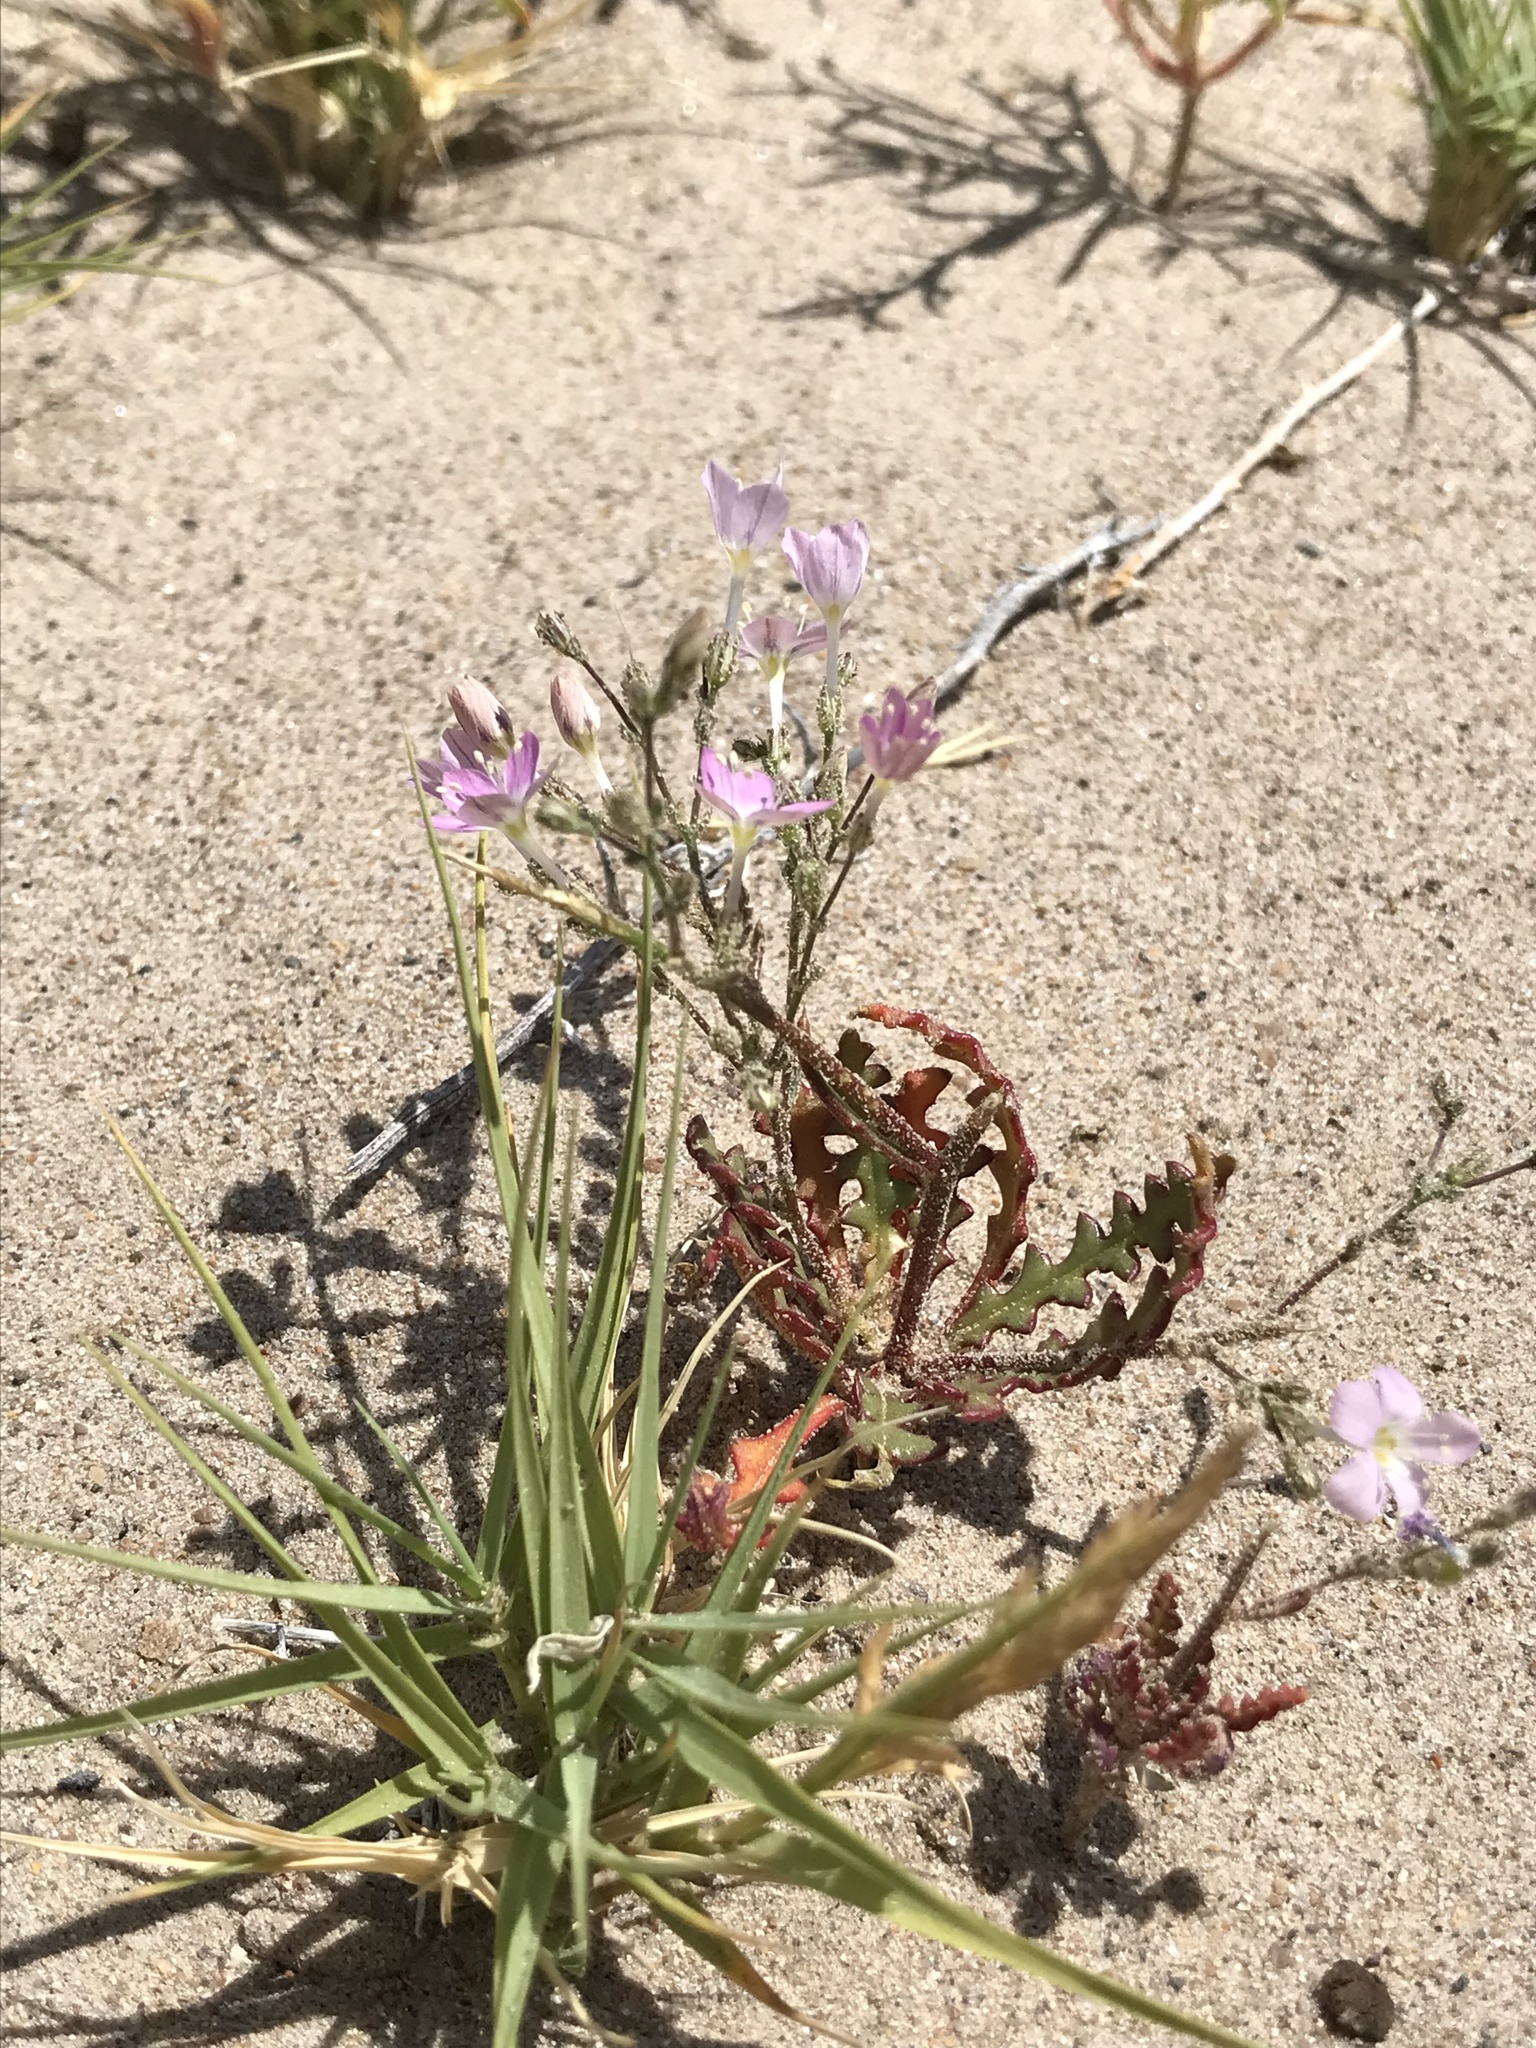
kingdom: Plantae
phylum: Tracheophyta
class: Magnoliopsida
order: Ericales
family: Polemoniaceae
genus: Aliciella
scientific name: Aliciella heterostyla
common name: Cactus flat gilia
